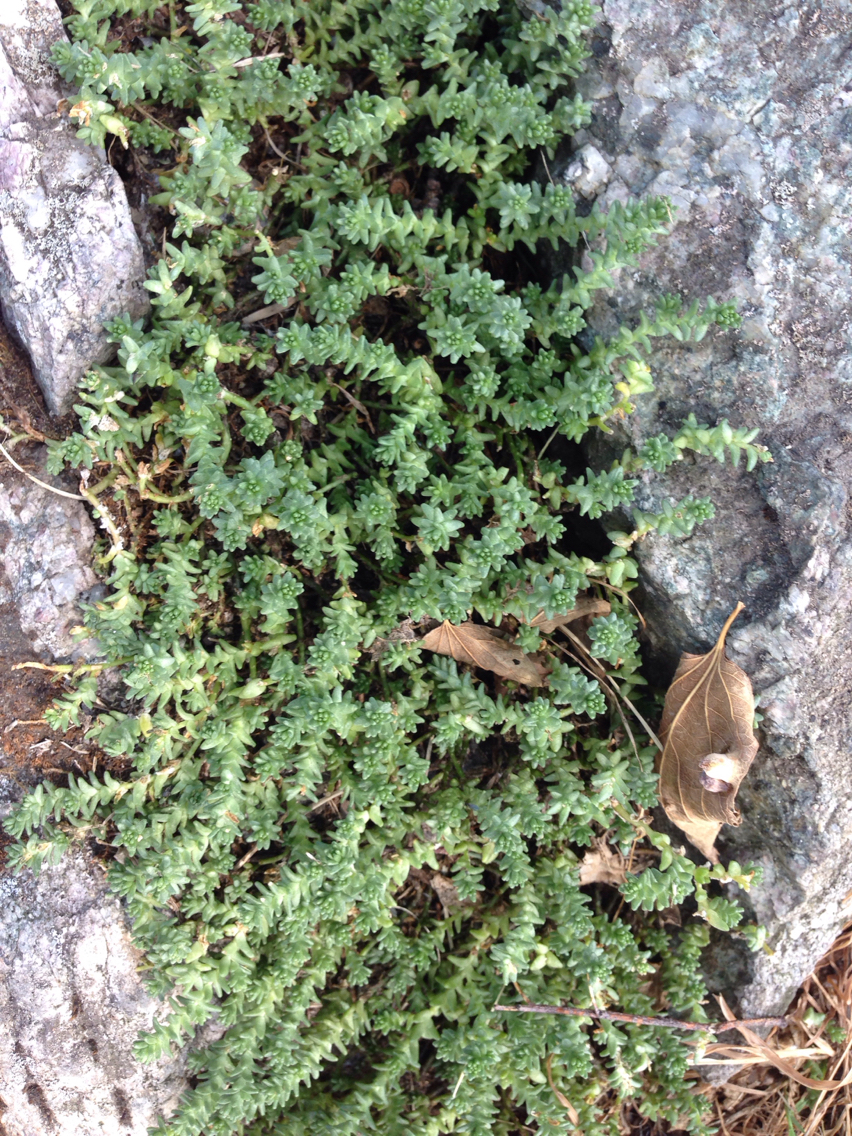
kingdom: Plantae
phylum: Tracheophyta
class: Magnoliopsida
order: Saxifragales
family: Crassulaceae
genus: Sedum
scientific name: Sedum acre
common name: Biting stonecrop
